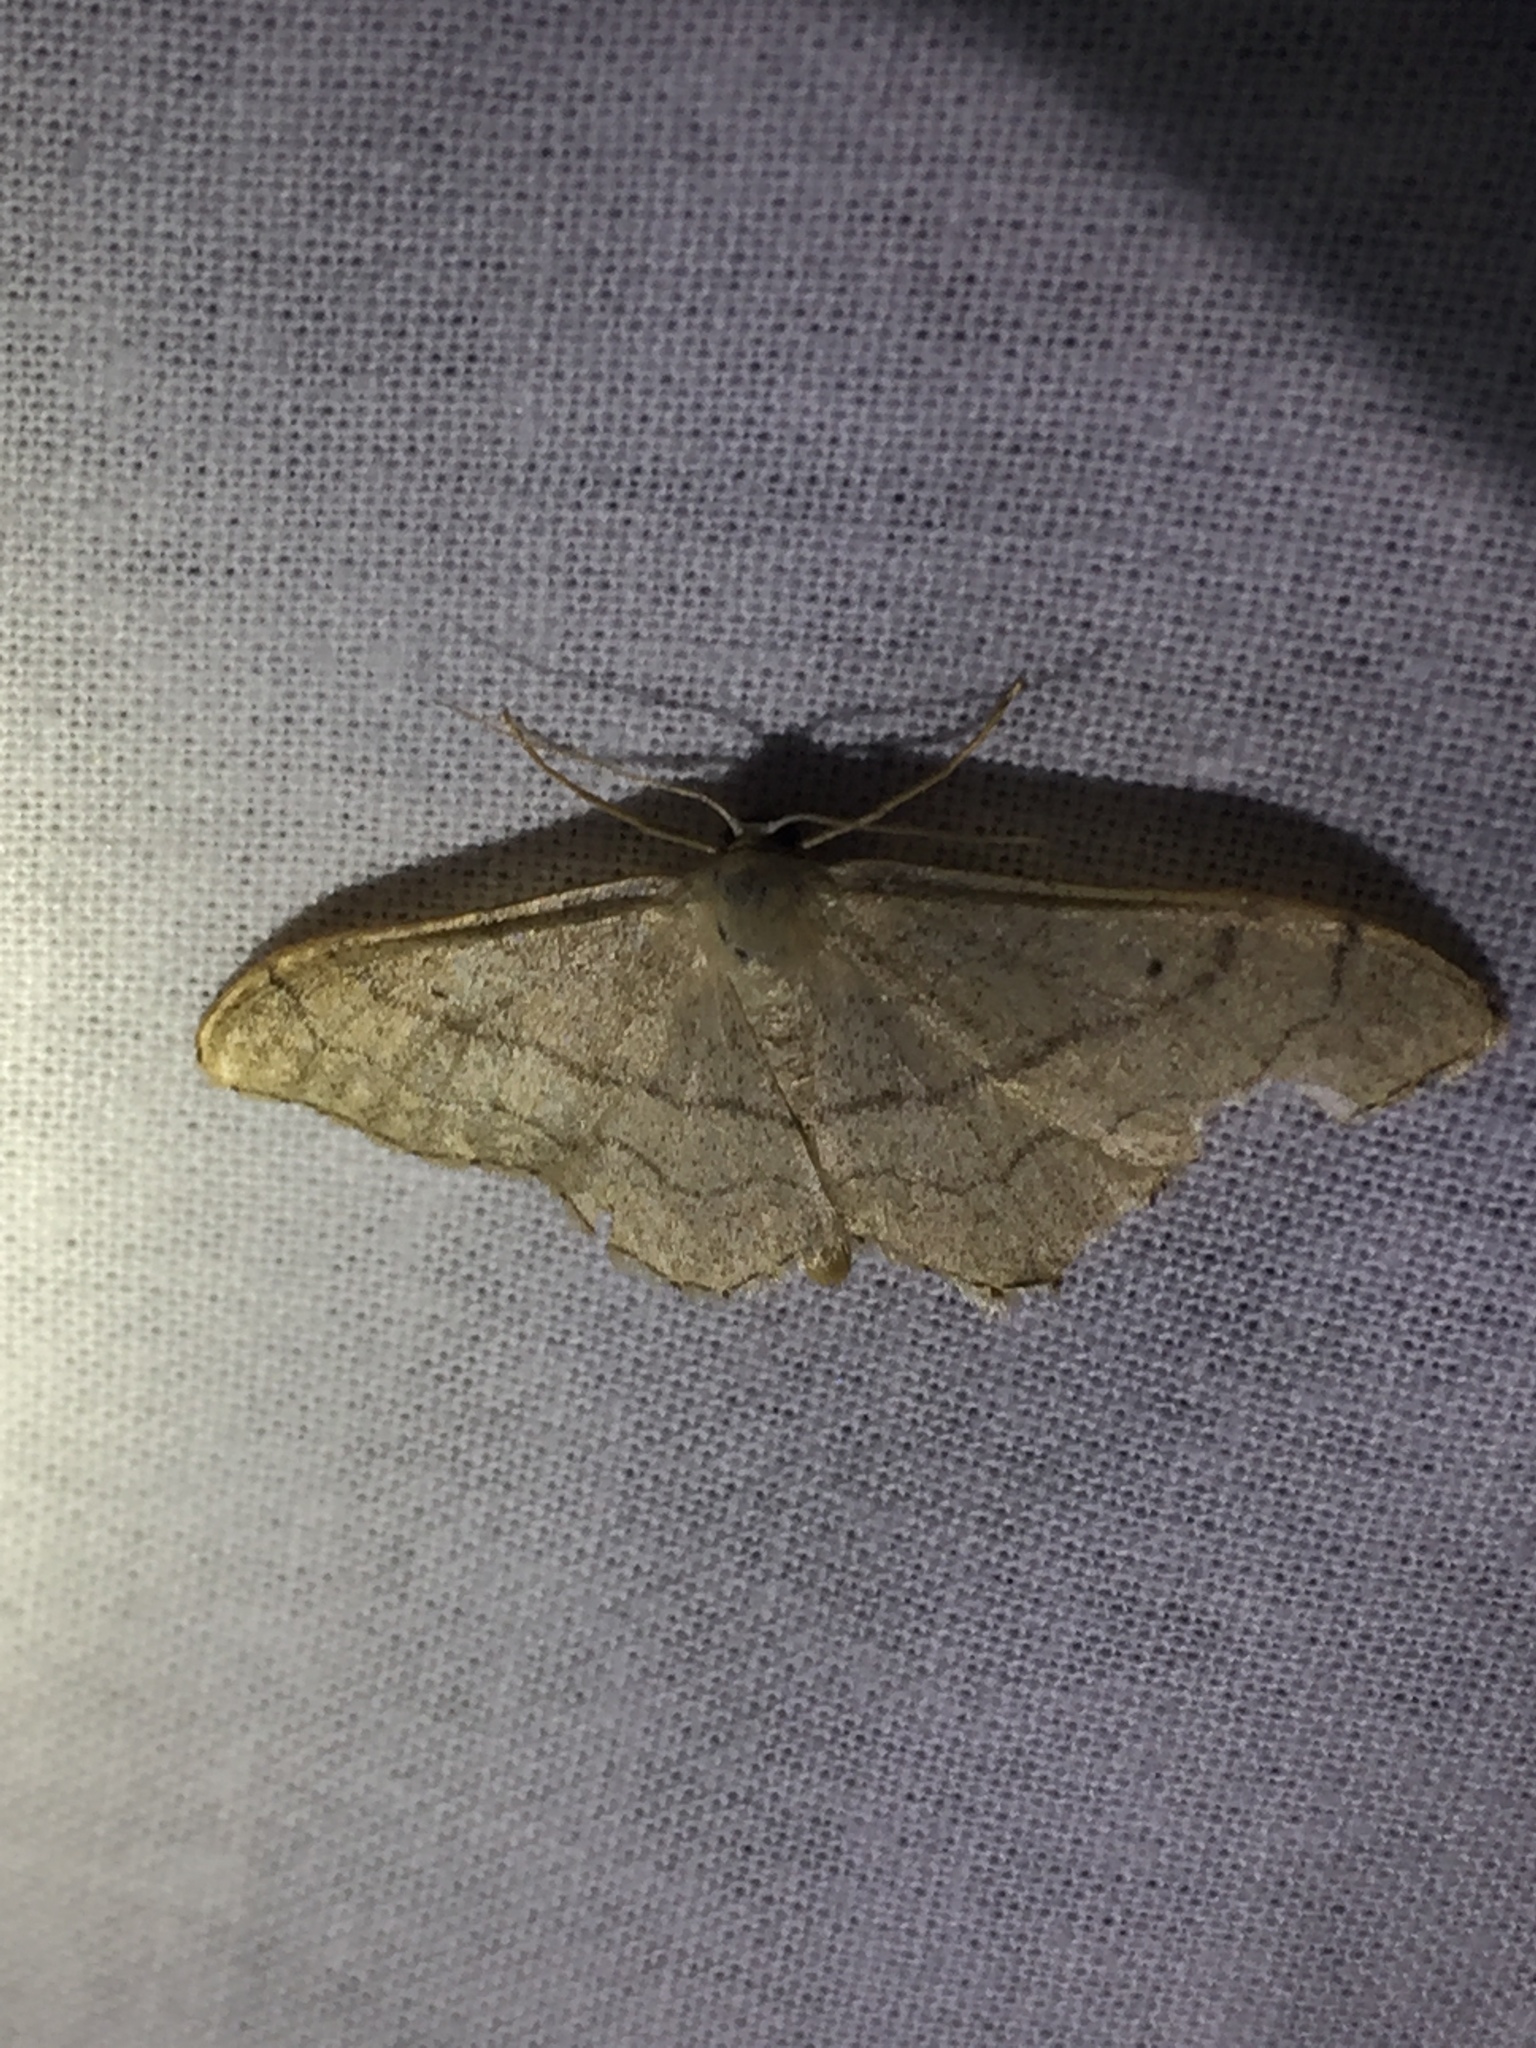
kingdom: Animalia
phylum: Arthropoda
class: Insecta
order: Lepidoptera
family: Geometridae
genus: Idaea
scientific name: Idaea aversata
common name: Riband wave
